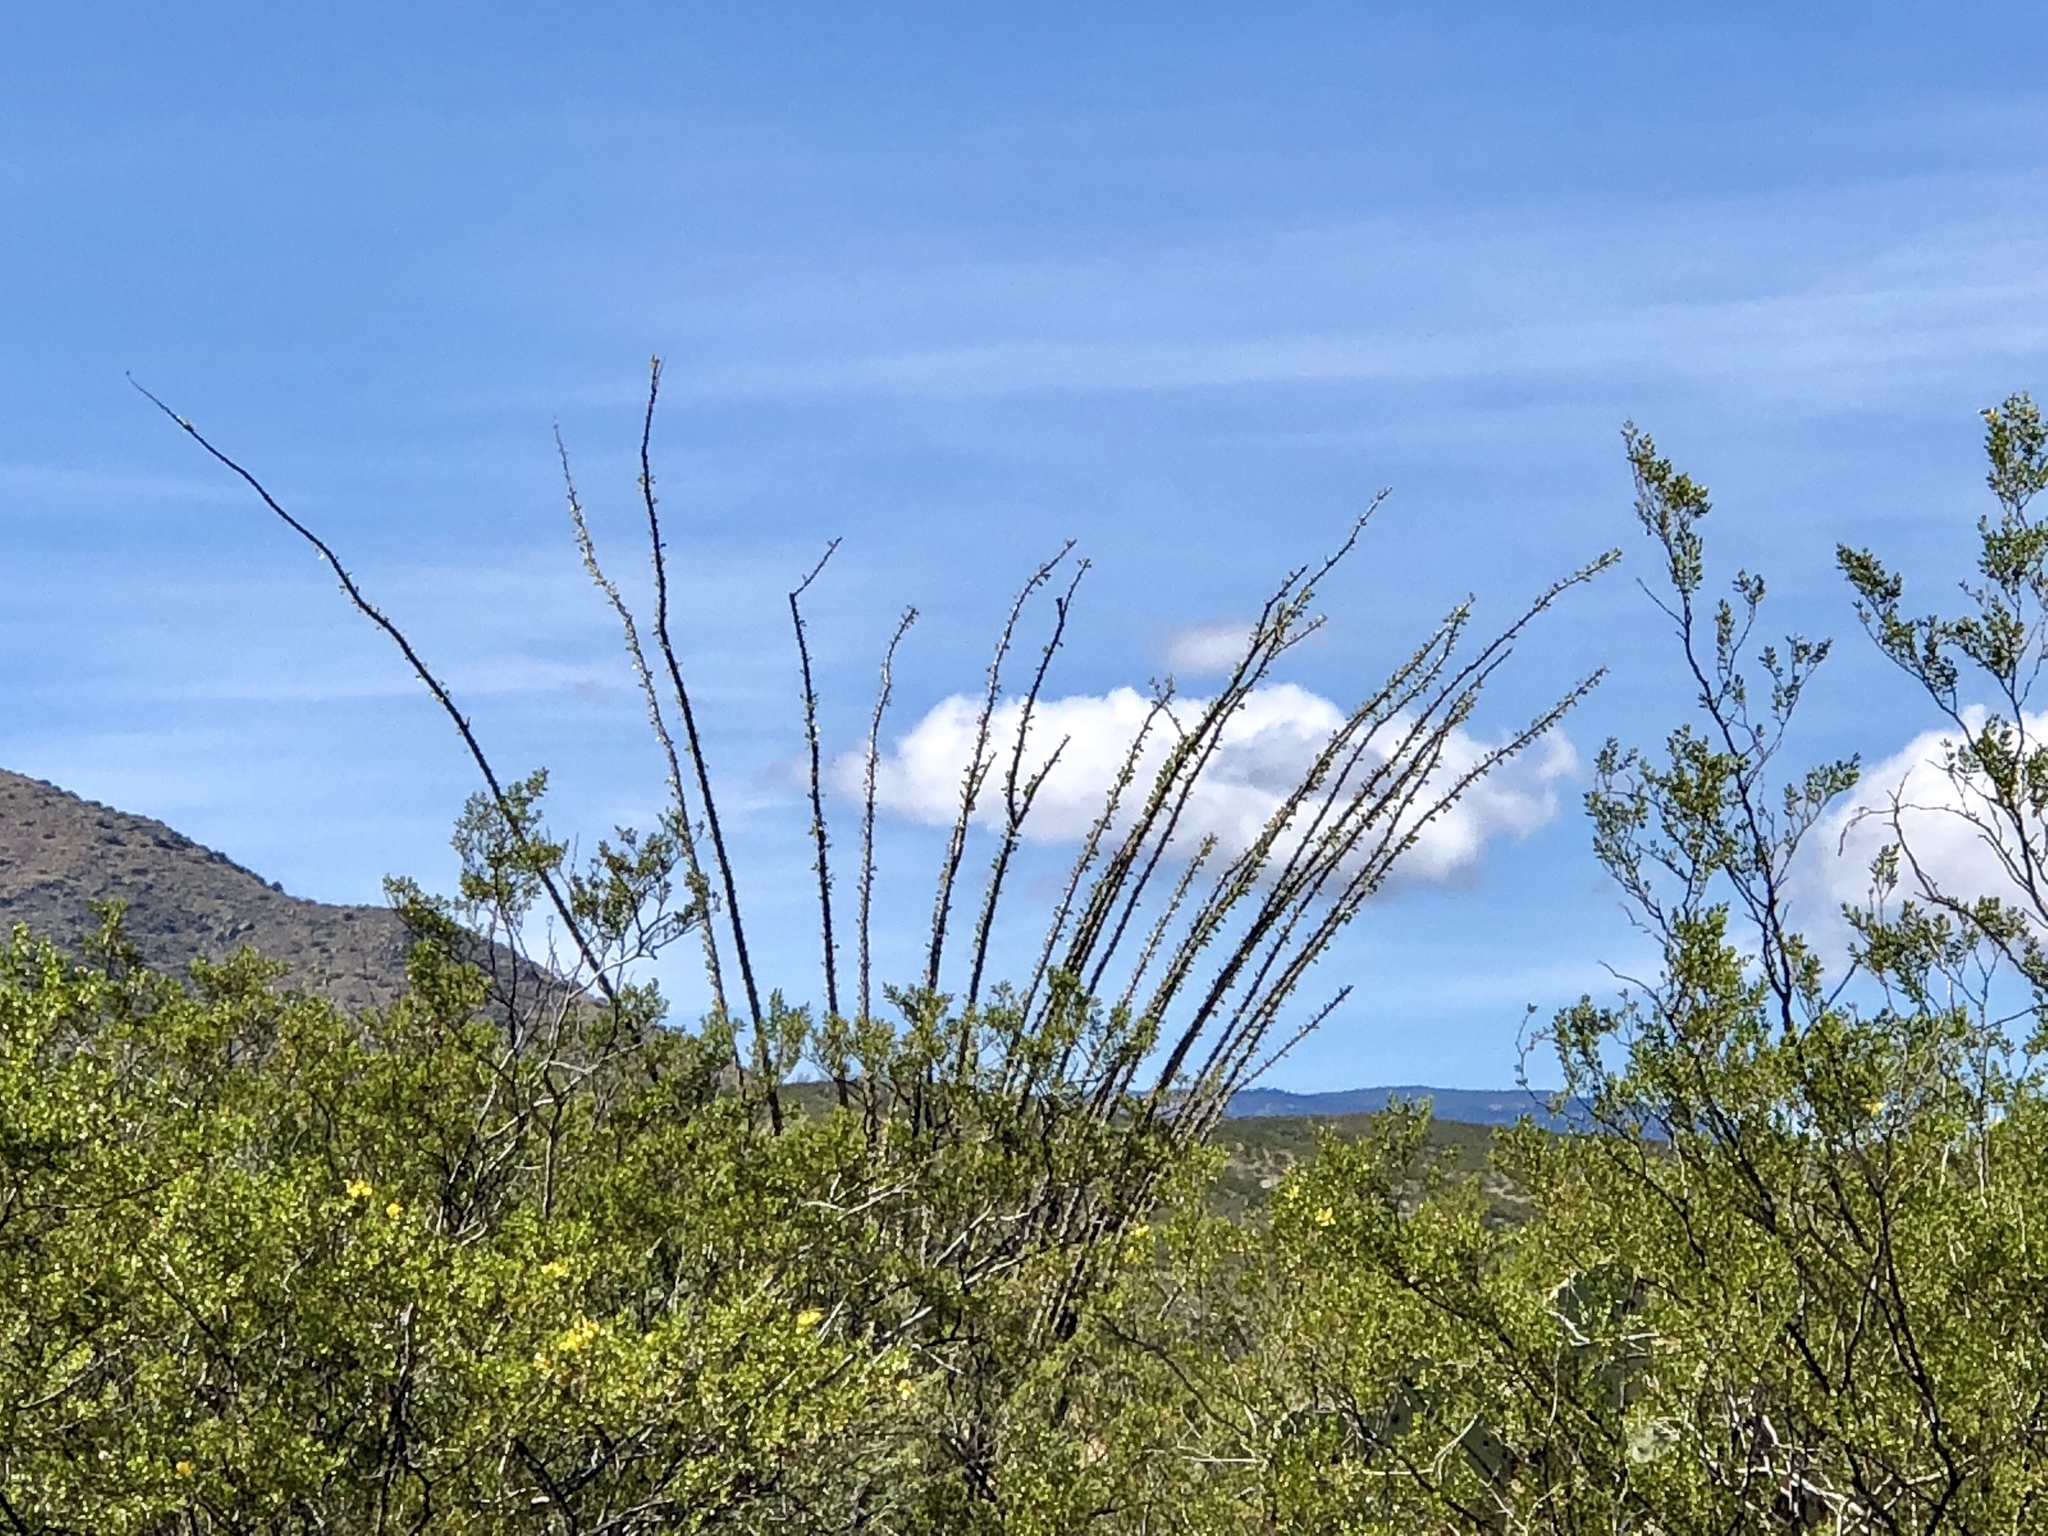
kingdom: Plantae
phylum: Tracheophyta
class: Magnoliopsida
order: Ericales
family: Fouquieriaceae
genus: Fouquieria
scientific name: Fouquieria splendens
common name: Vine-cactus
